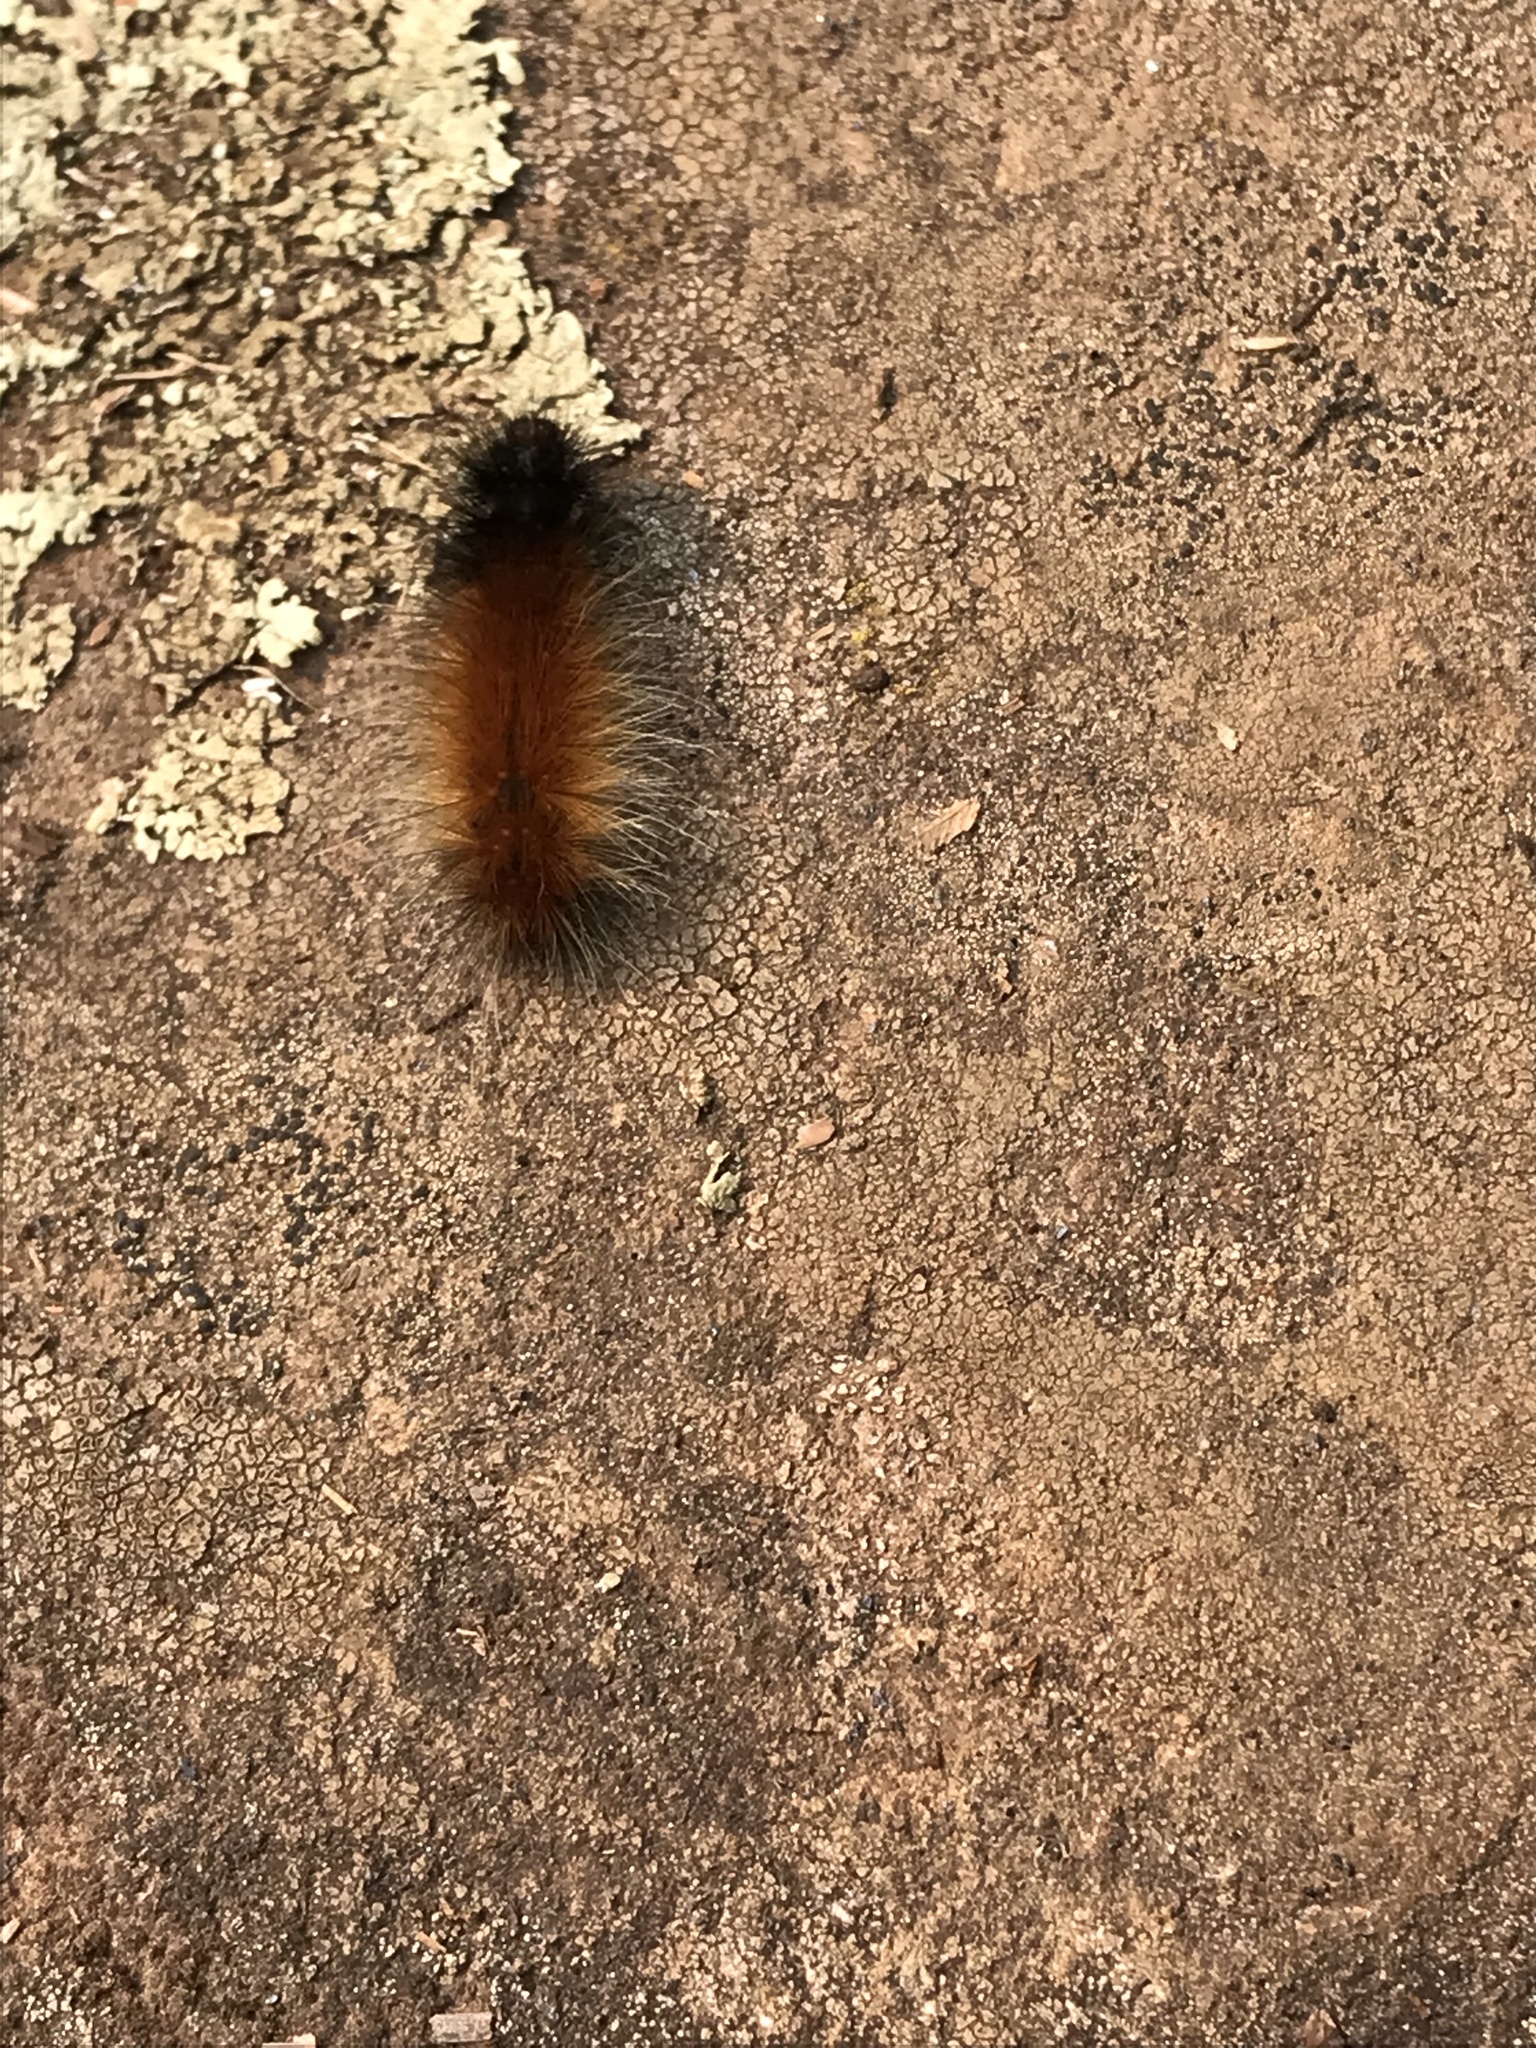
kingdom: Animalia
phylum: Arthropoda
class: Insecta
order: Lepidoptera
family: Erebidae
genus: Spilosoma
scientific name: Spilosoma virginica
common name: Virginia tiger moth
